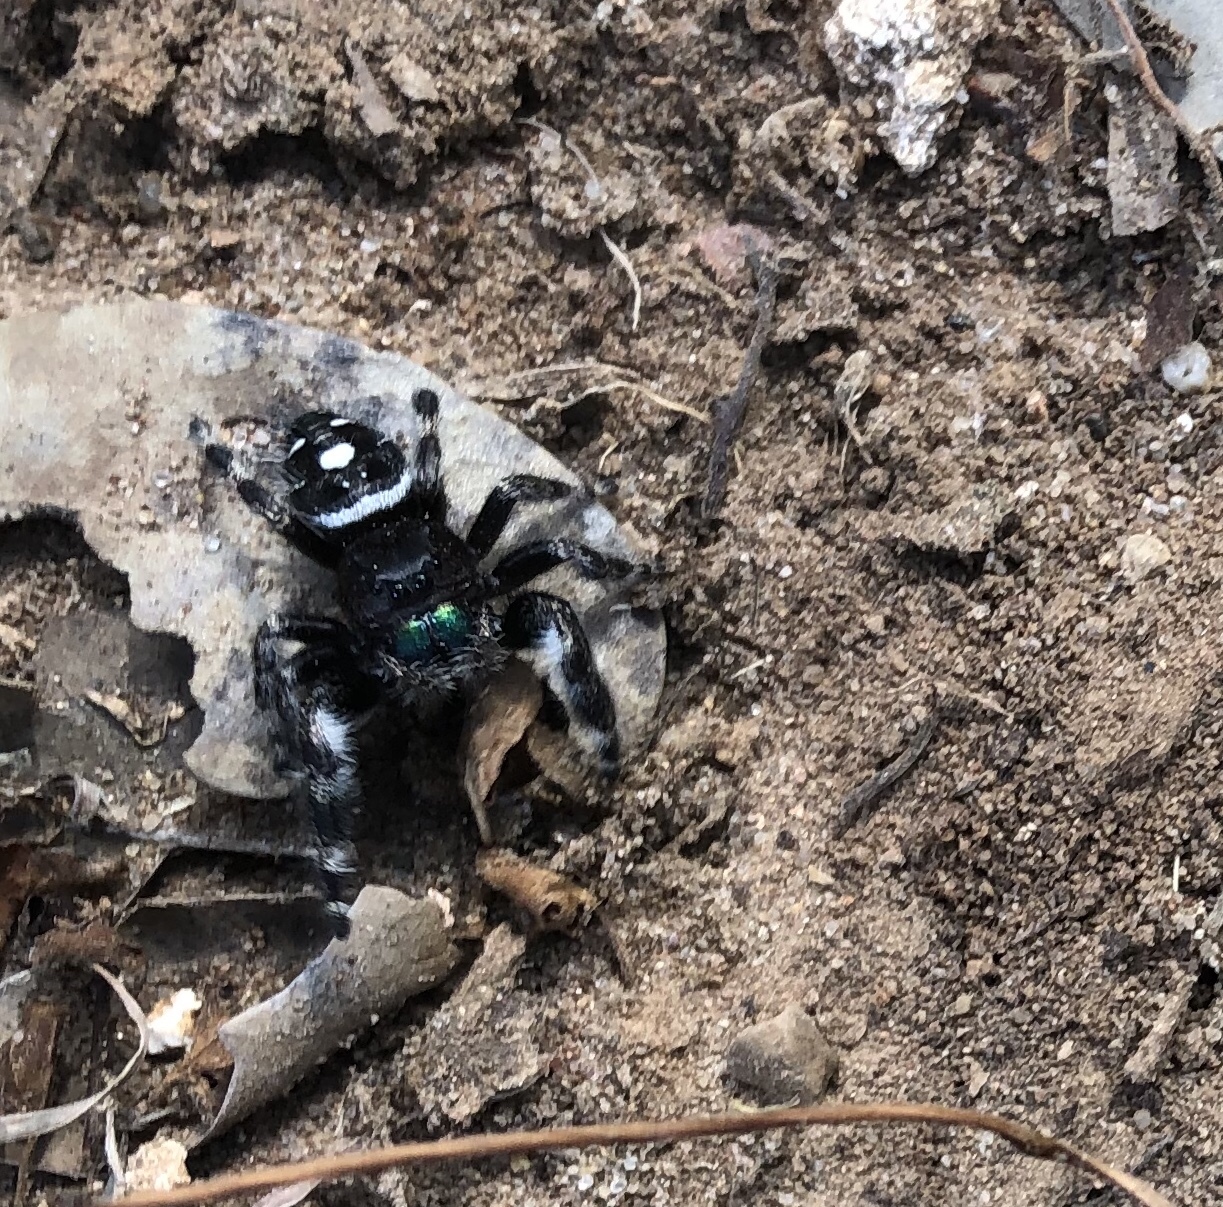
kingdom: Animalia
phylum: Arthropoda
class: Arachnida
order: Araneae
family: Salticidae
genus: Phidippus
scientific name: Phidippus audax
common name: Bold jumper
